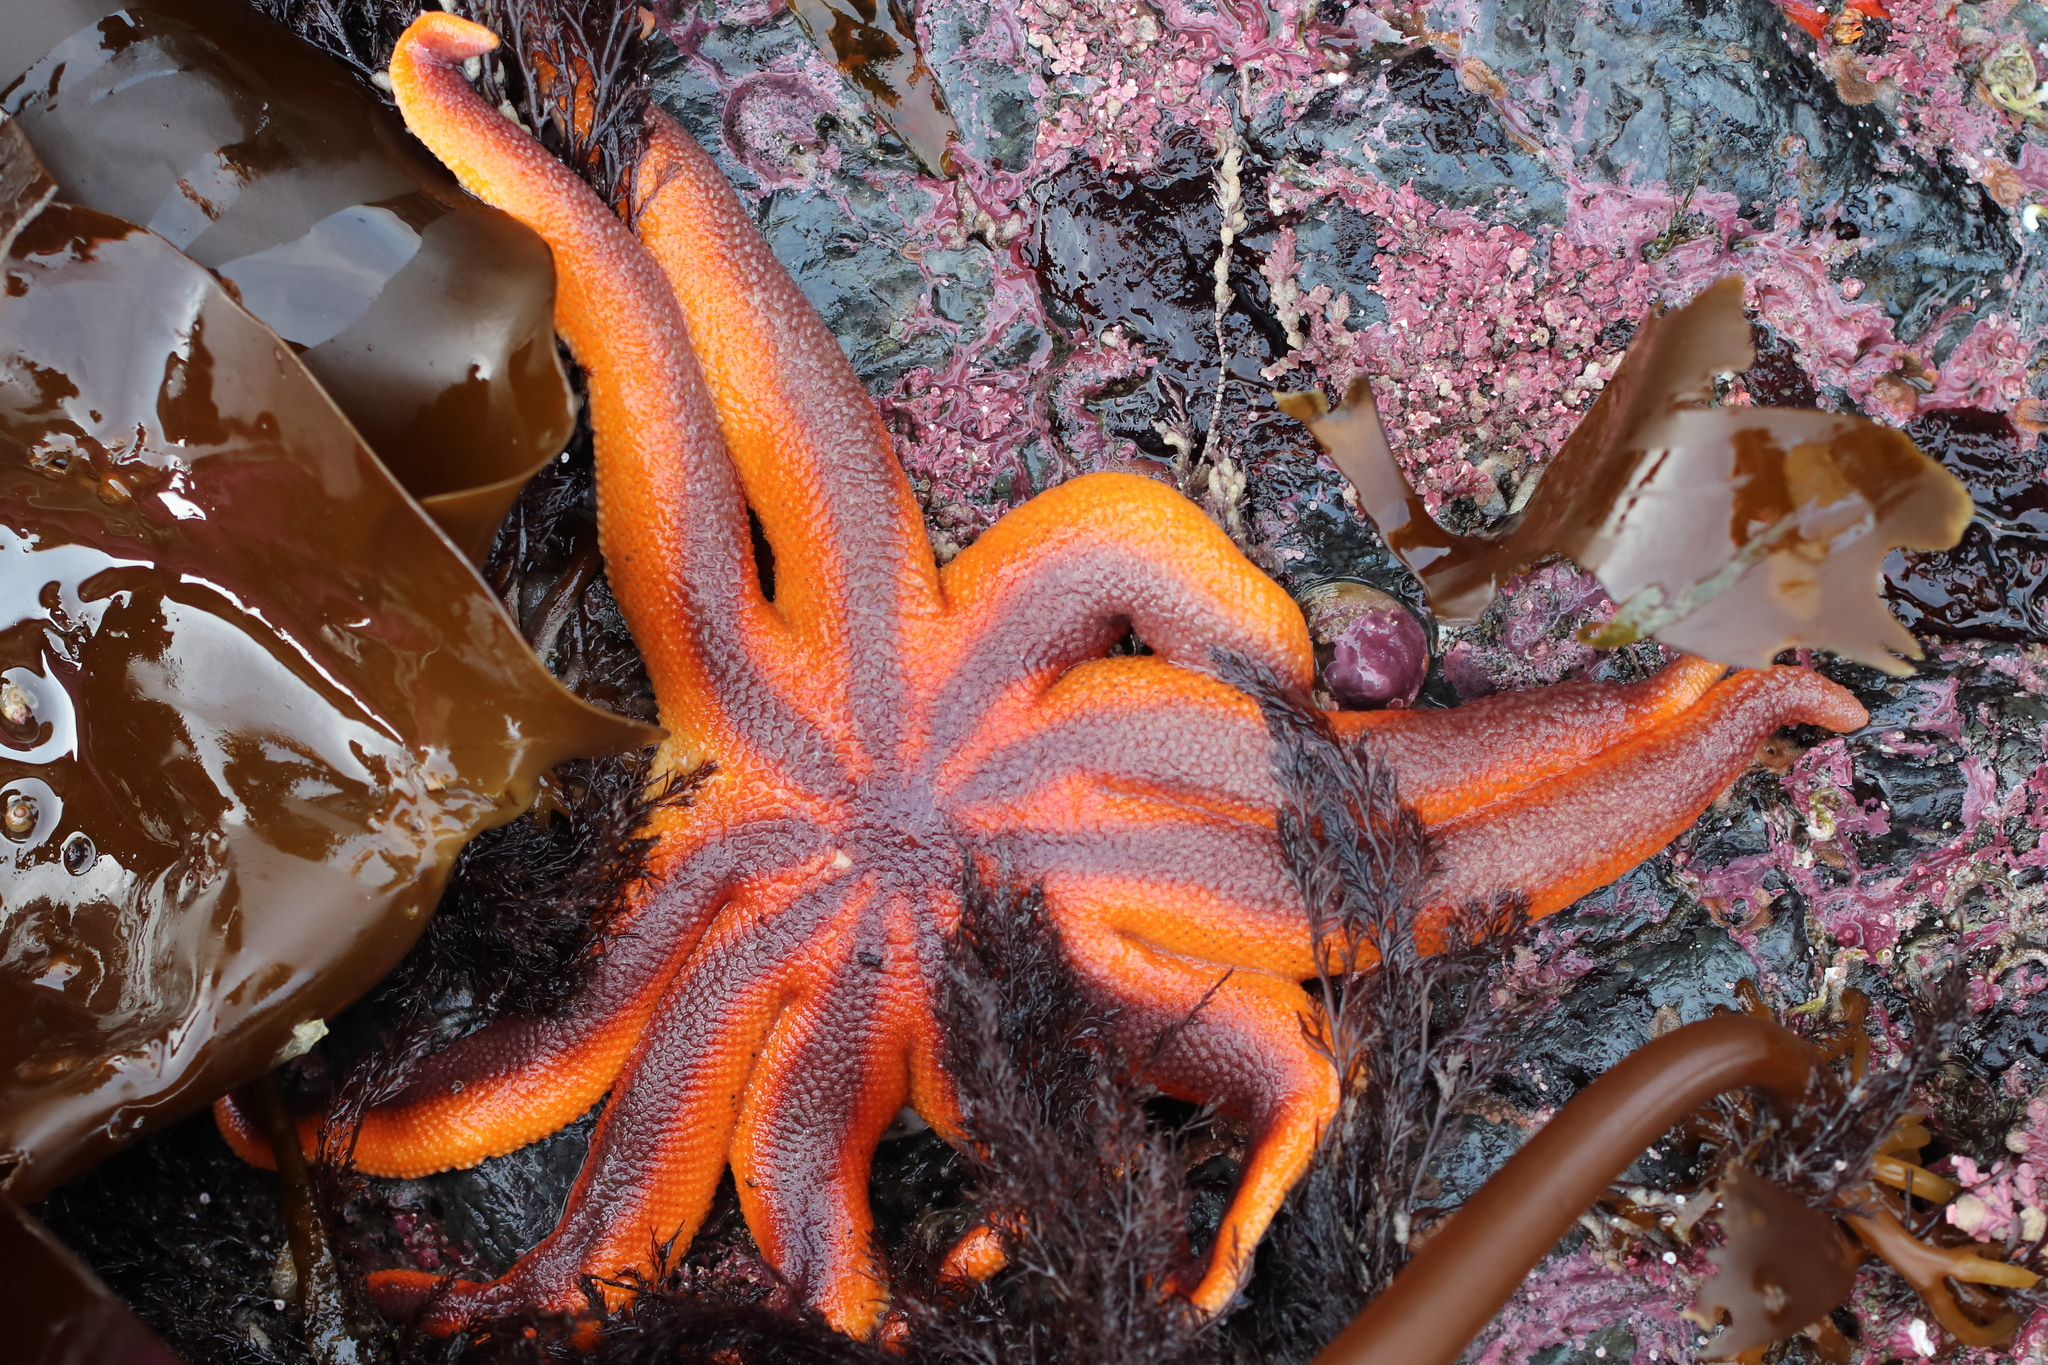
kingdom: Animalia
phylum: Echinodermata
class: Asteroidea
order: Valvatida
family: Solasteridae
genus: Solaster
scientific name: Solaster stimpsoni
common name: Orange sun star
